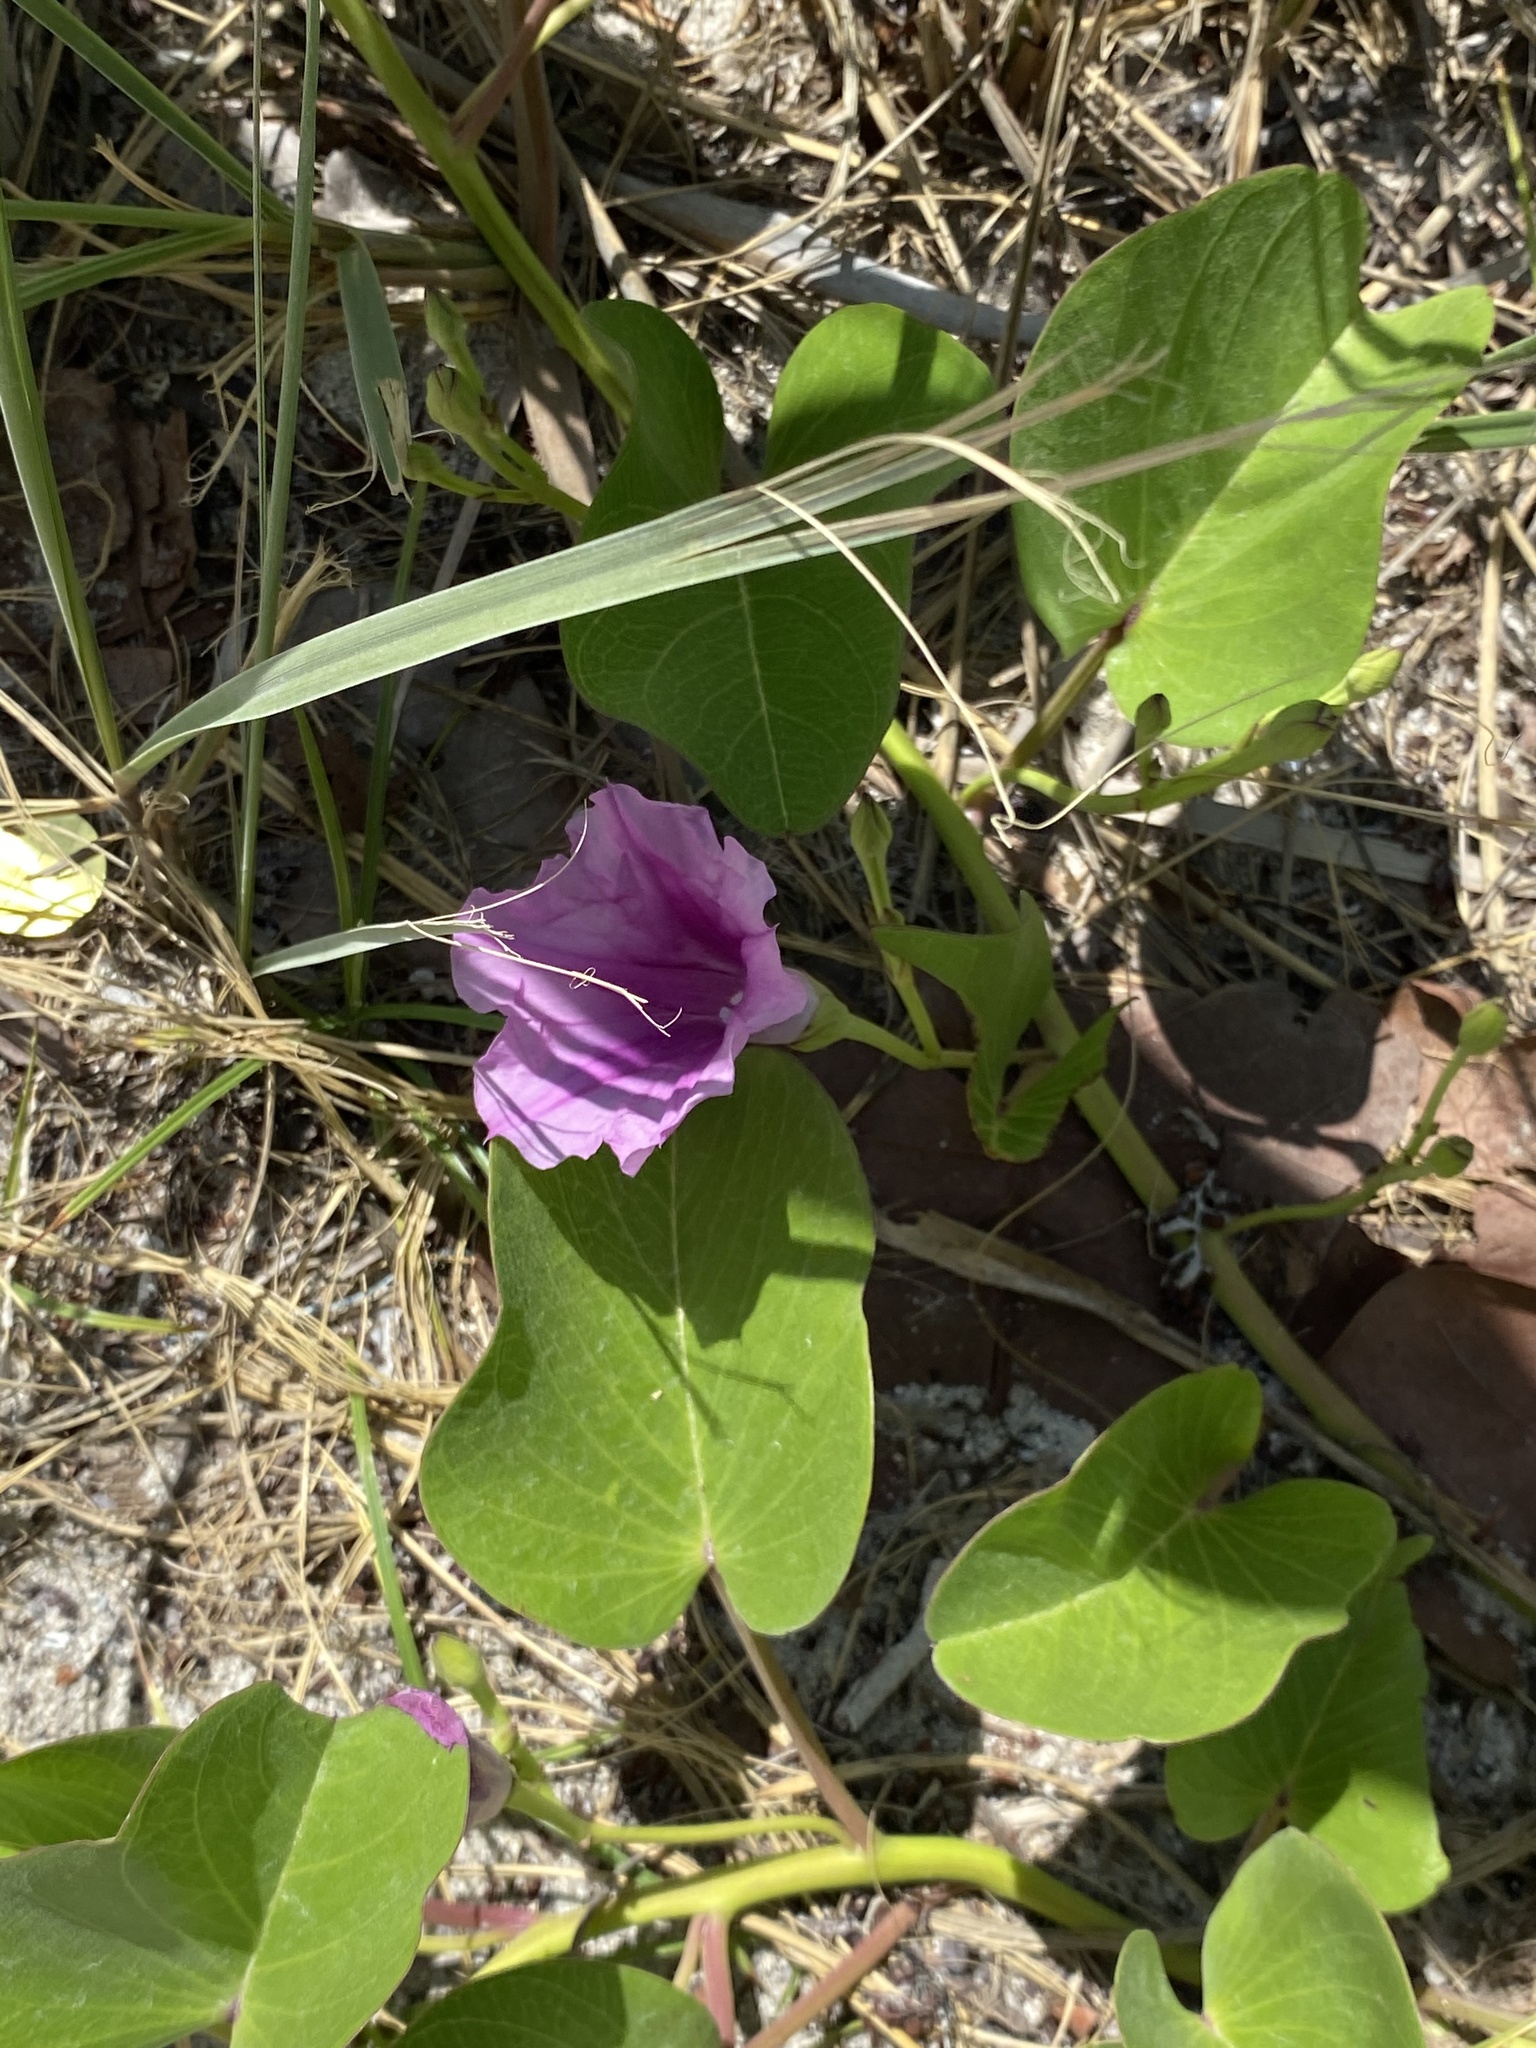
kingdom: Plantae
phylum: Tracheophyta
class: Magnoliopsida
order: Solanales
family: Convolvulaceae
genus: Ipomoea
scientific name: Ipomoea pes-caprae
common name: Beach morning glory
